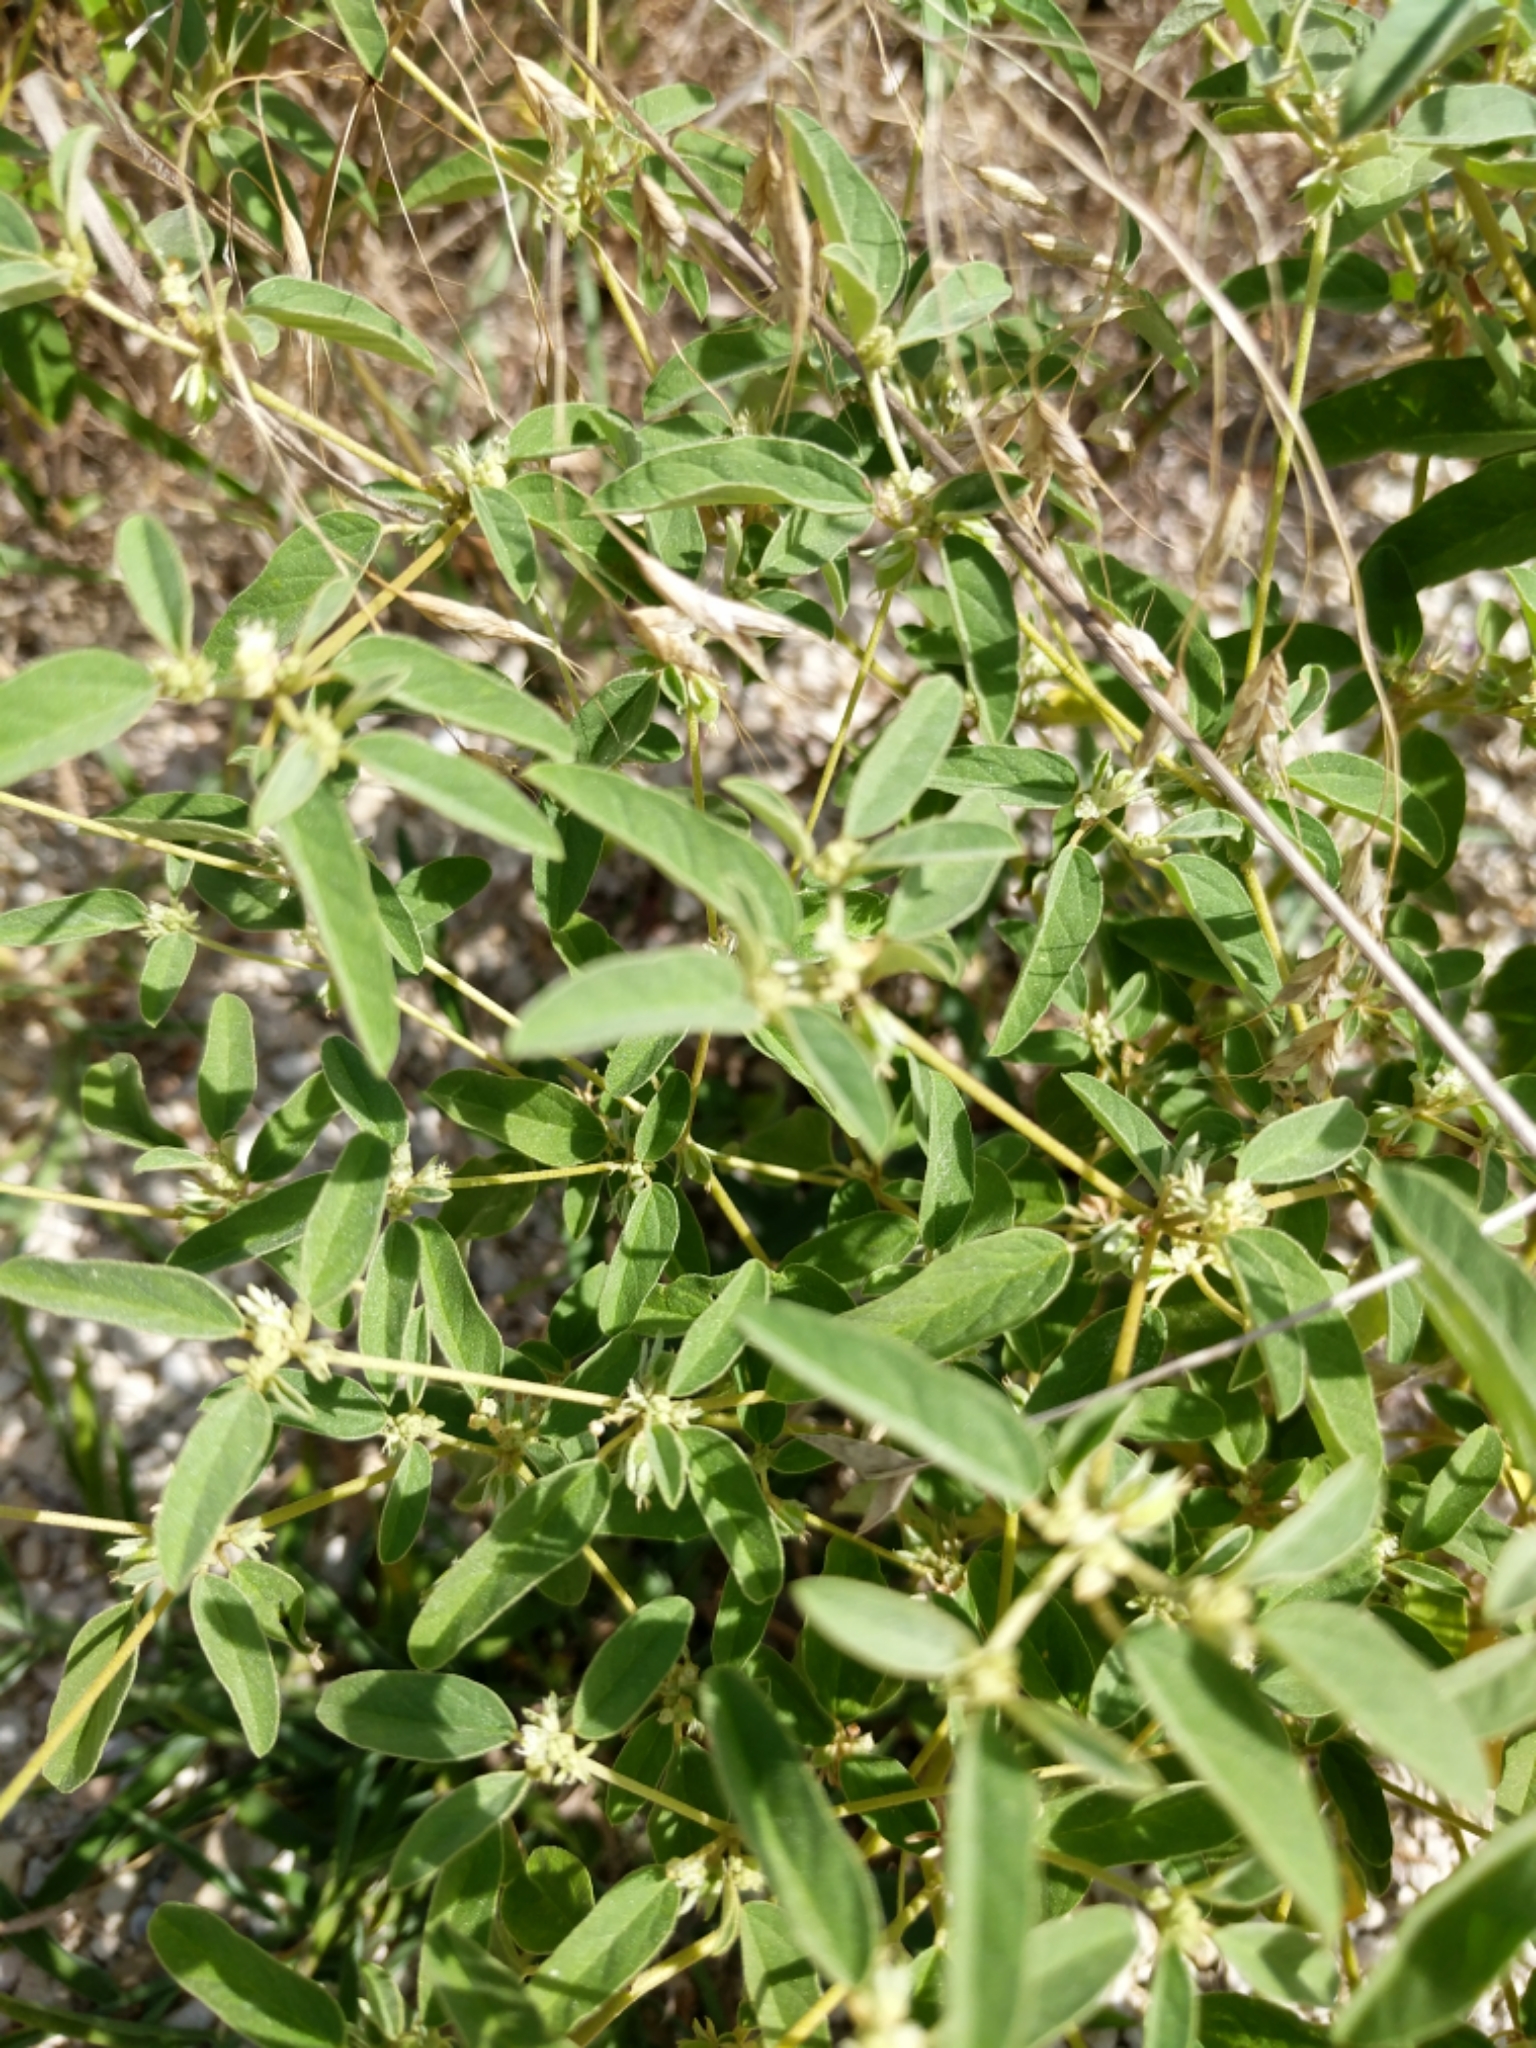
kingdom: Plantae
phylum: Tracheophyta
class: Magnoliopsida
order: Malpighiales
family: Euphorbiaceae
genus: Croton
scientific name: Croton monanthogynus
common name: One-seed croton
